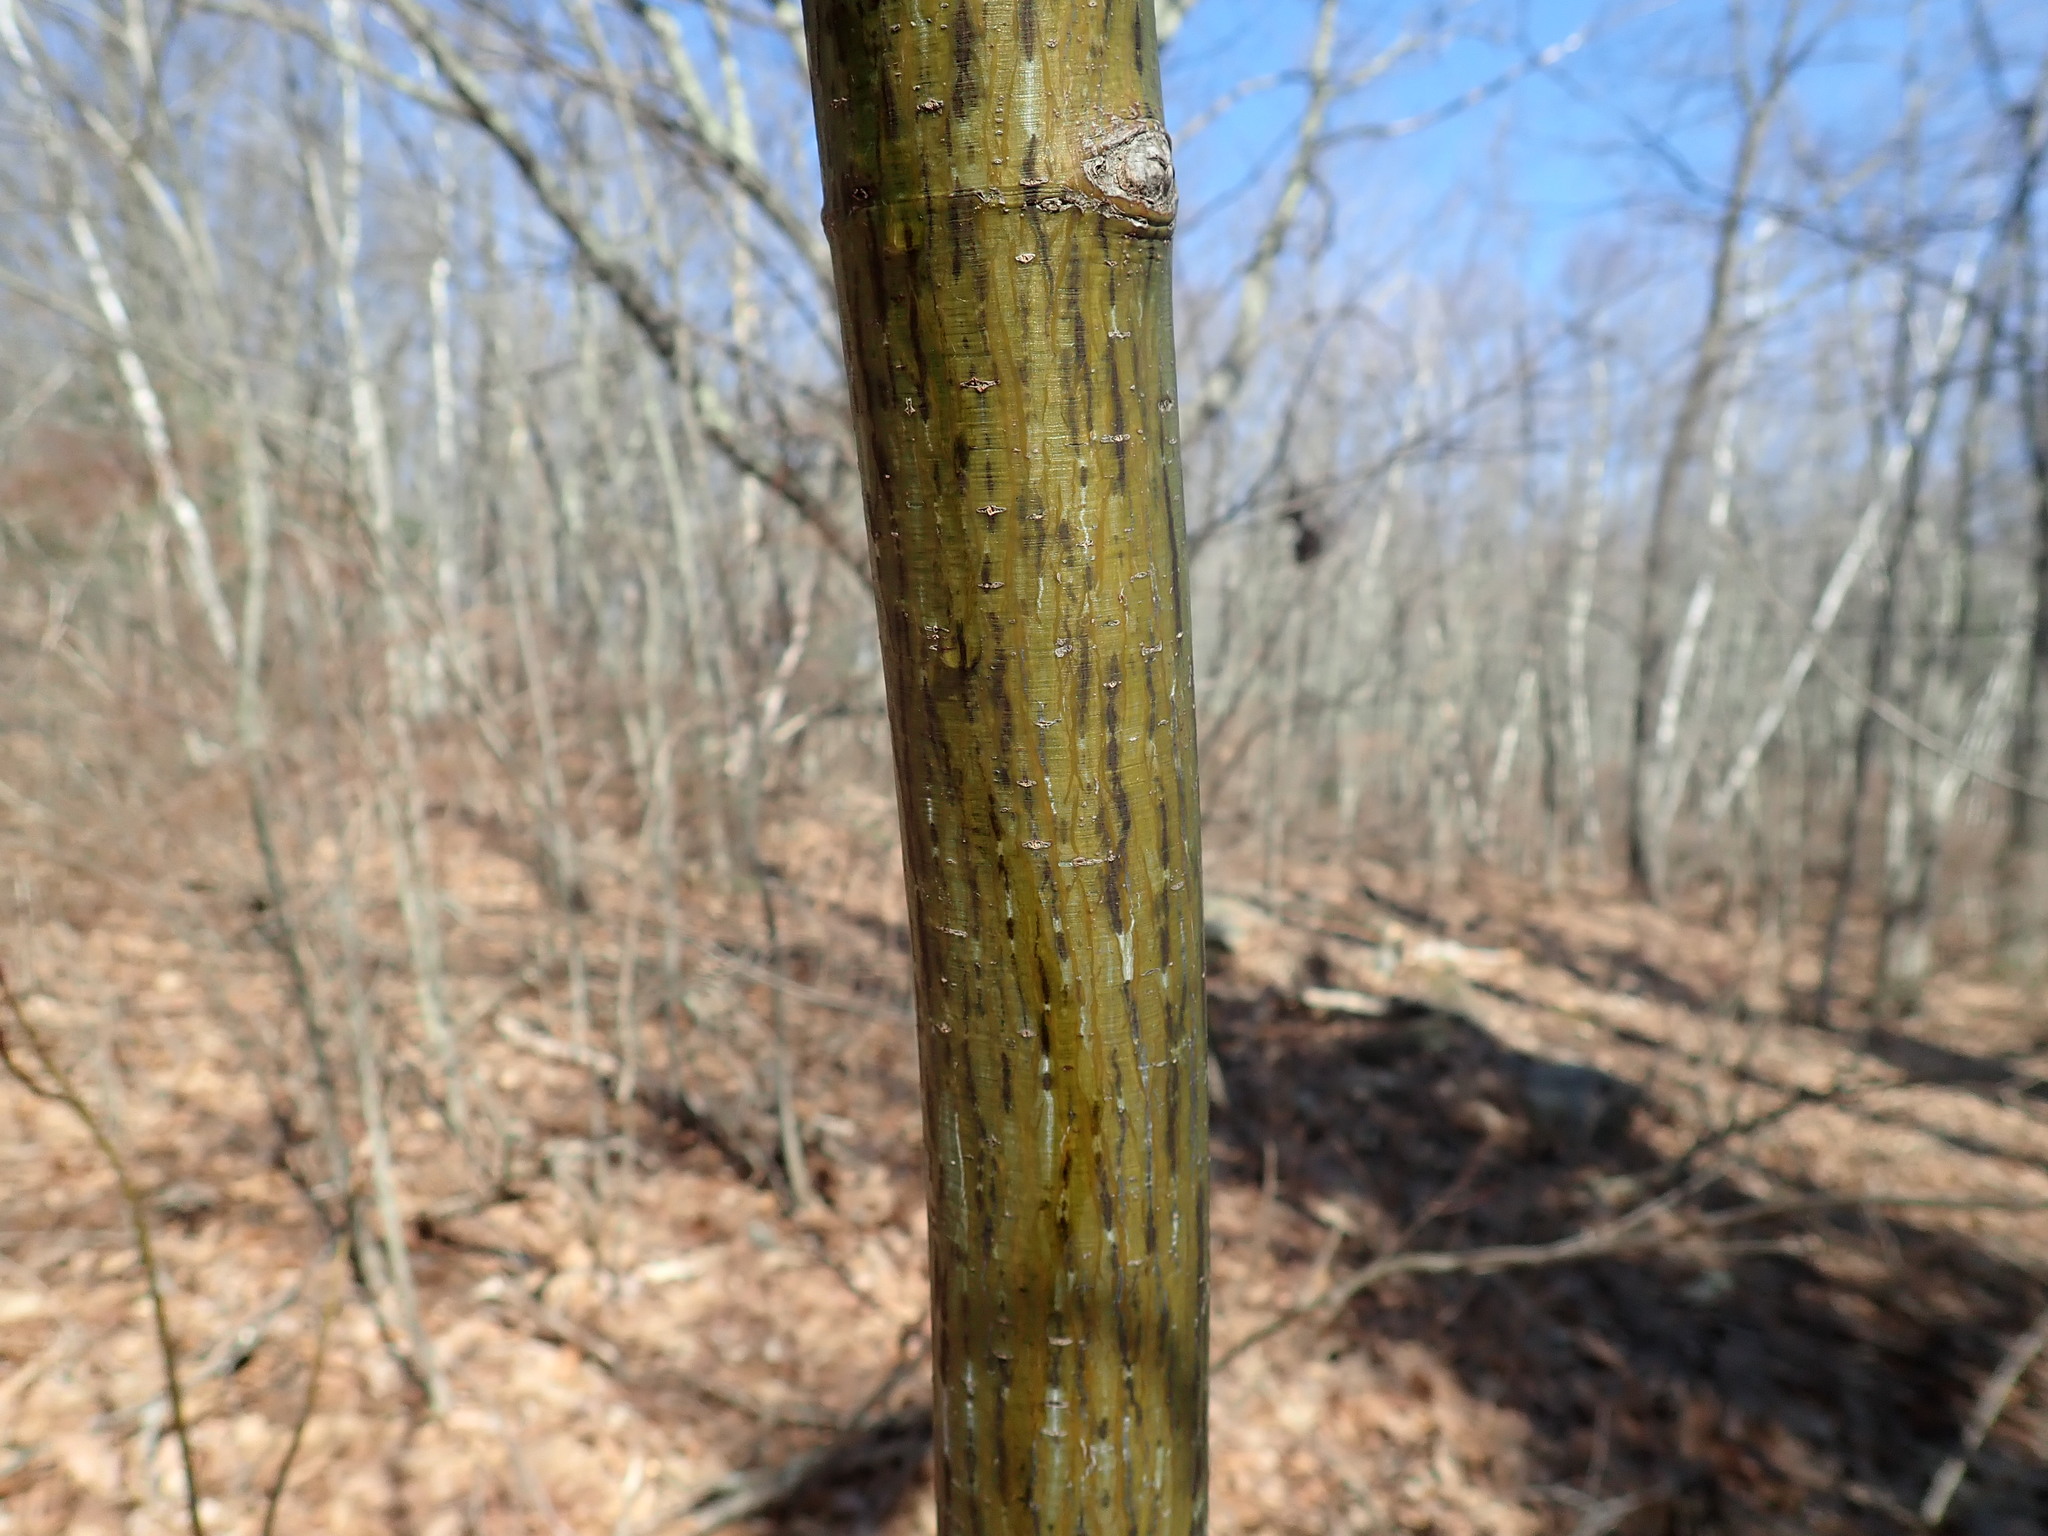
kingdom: Plantae
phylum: Tracheophyta
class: Magnoliopsida
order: Sapindales
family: Sapindaceae
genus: Acer
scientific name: Acer pensylvanicum
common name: Moosewood
